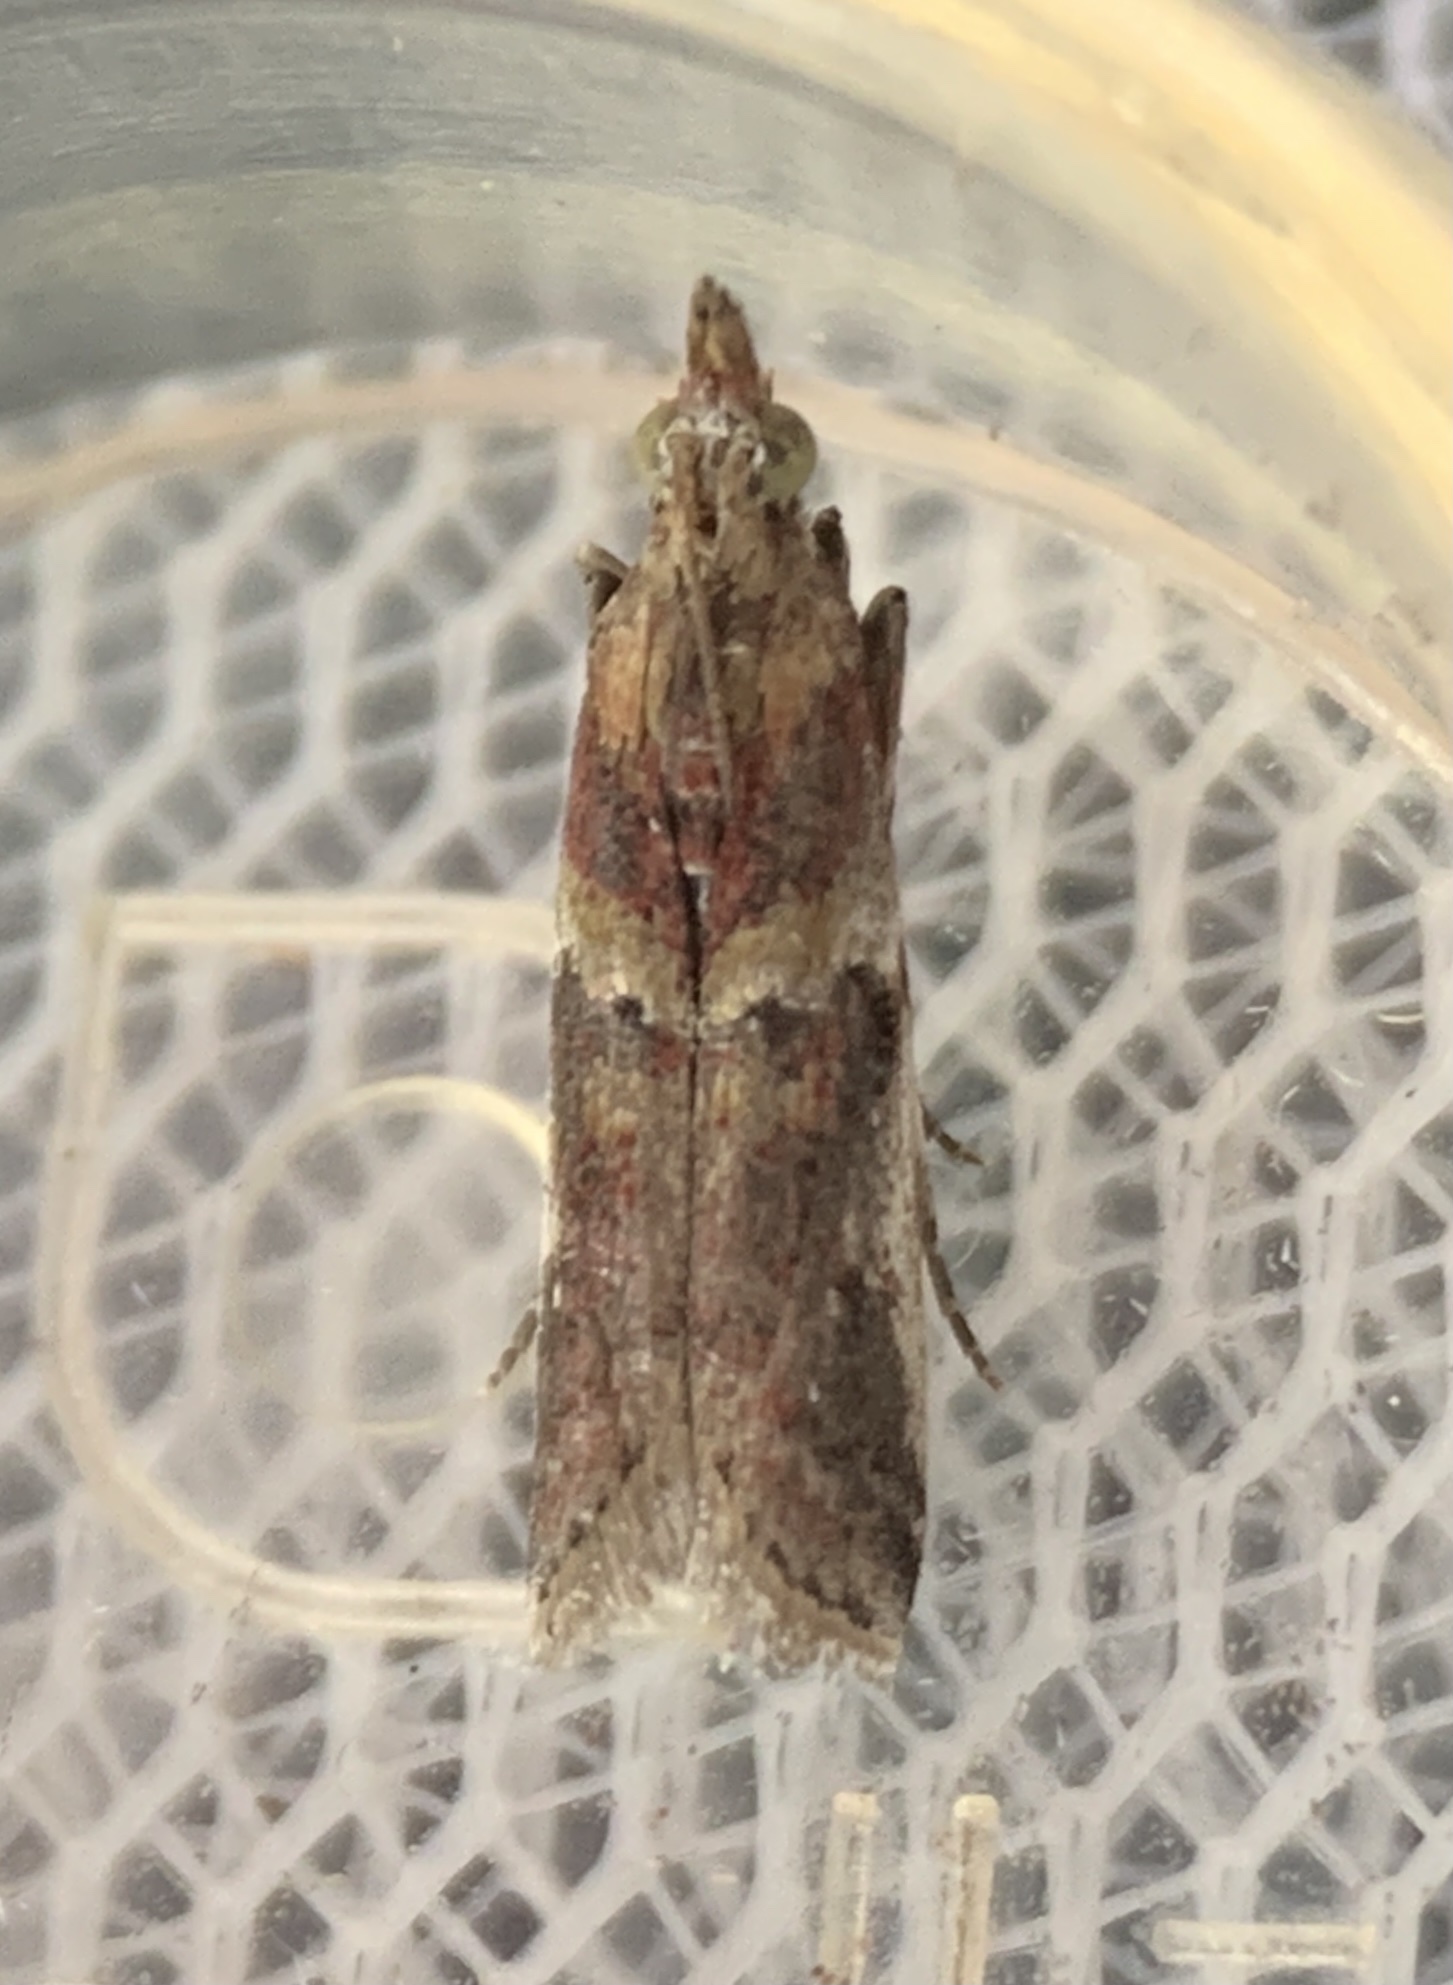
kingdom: Animalia
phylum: Arthropoda
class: Insecta
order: Lepidoptera
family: Pyralidae
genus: Ancylosis
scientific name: Ancylosis bonhoti
